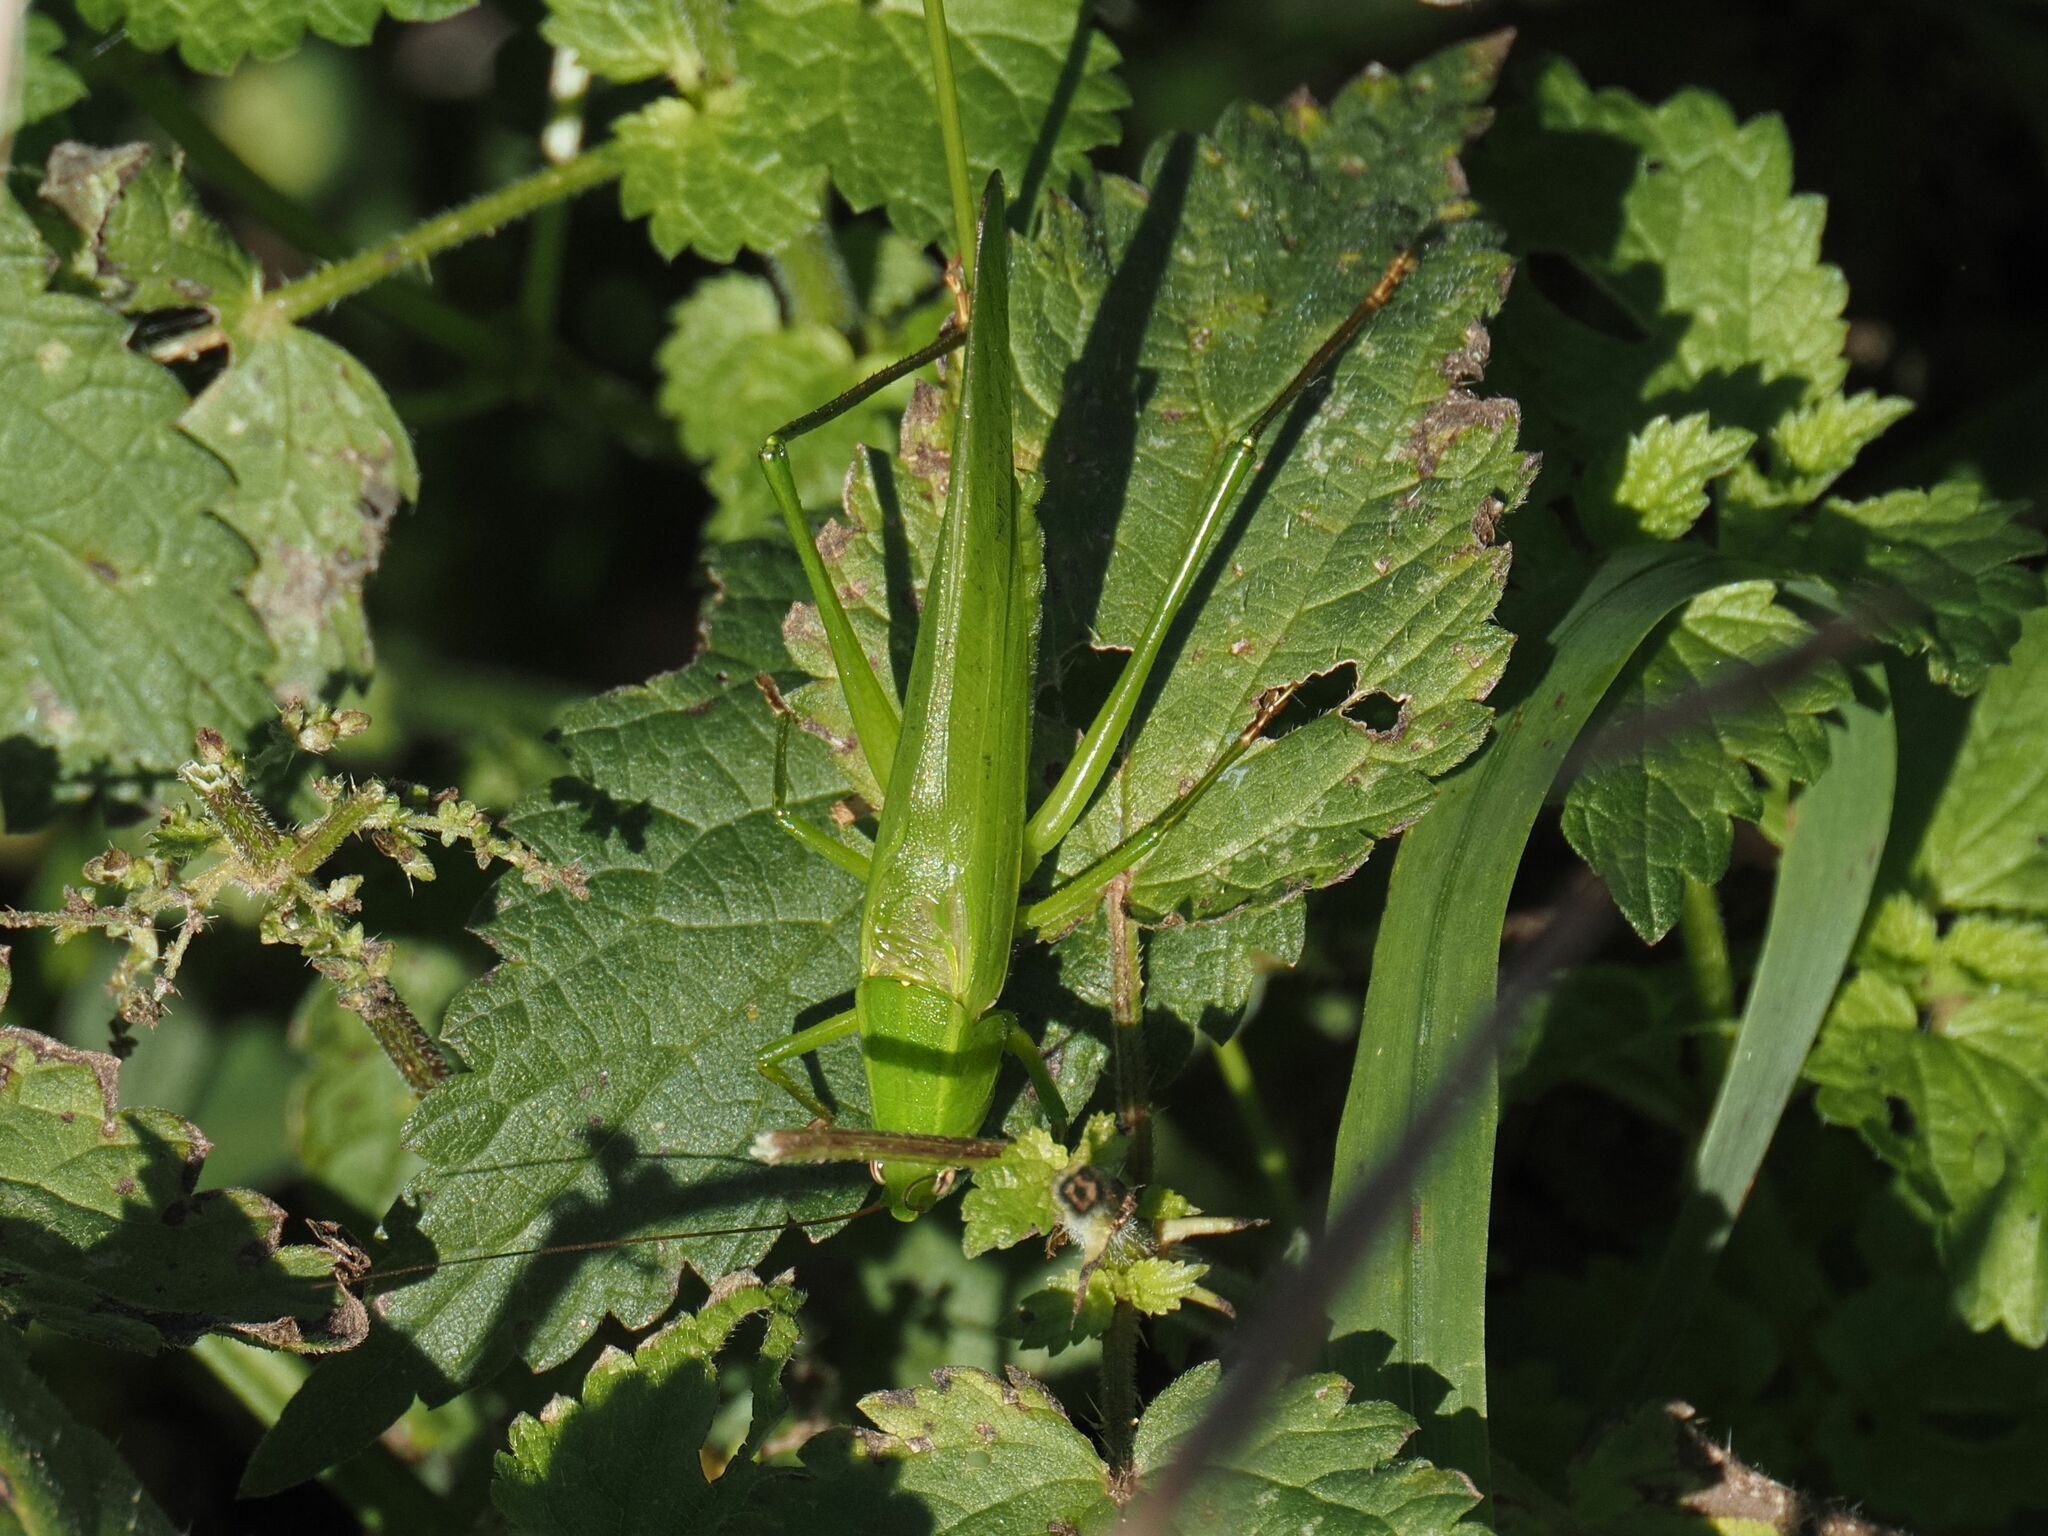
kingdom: Animalia
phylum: Arthropoda
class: Insecta
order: Orthoptera
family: Tettigoniidae
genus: Ruspolia
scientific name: Ruspolia nitidula
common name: Large conehead
